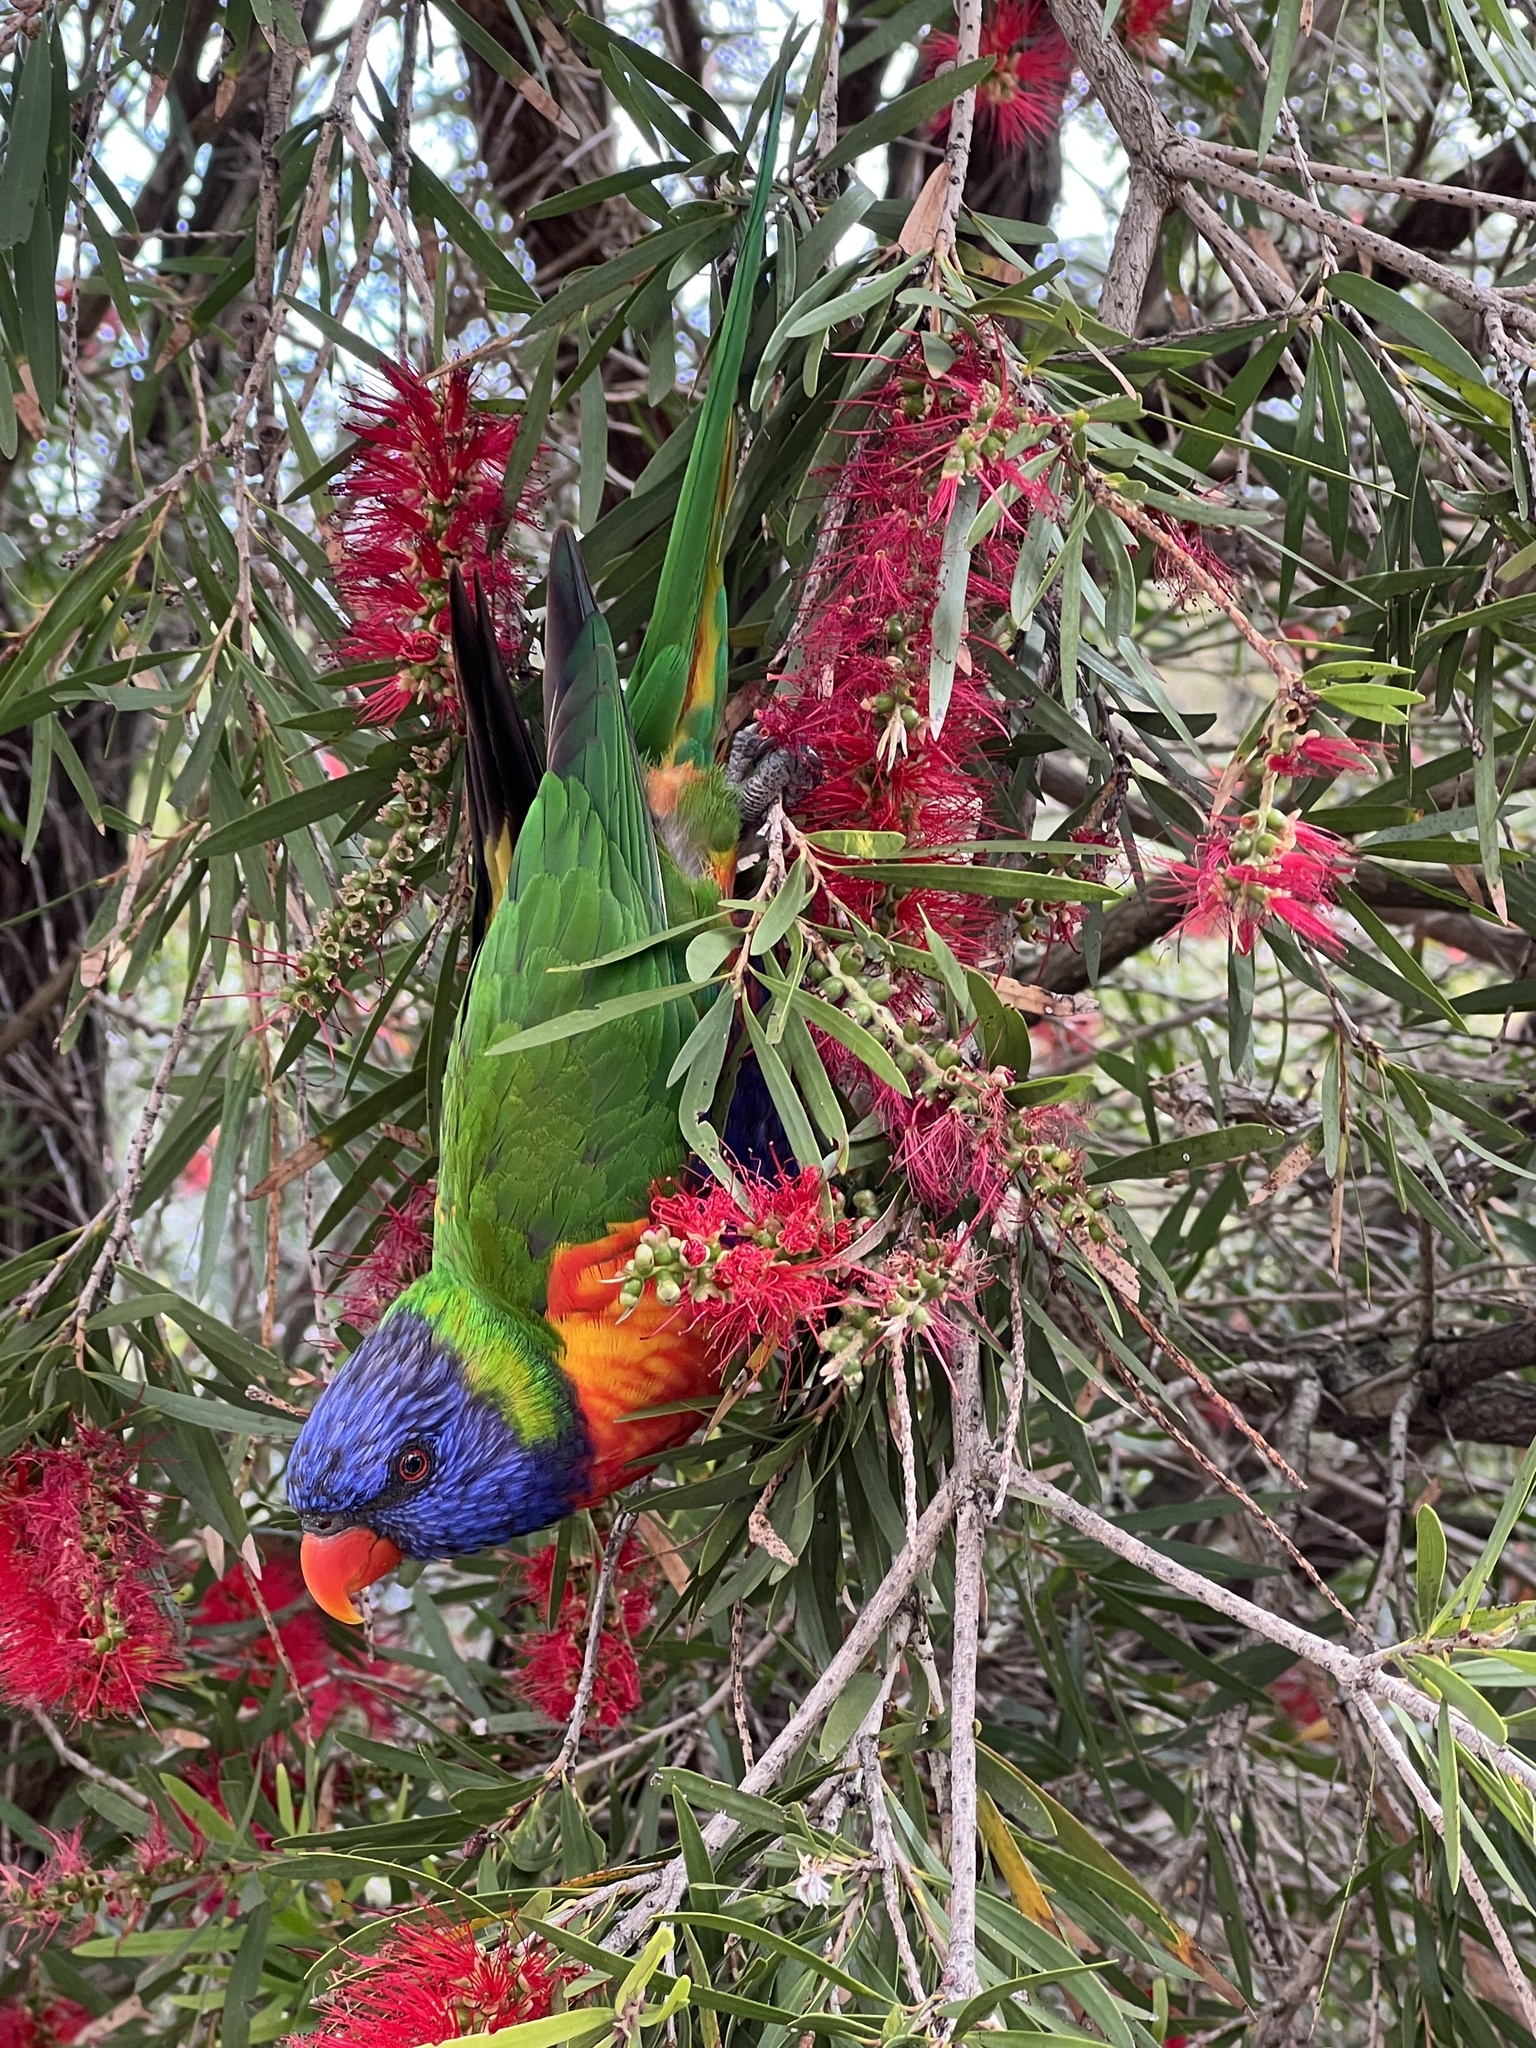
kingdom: Animalia
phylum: Chordata
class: Aves
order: Psittaciformes
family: Psittacidae
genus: Trichoglossus
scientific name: Trichoglossus haematodus
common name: Coconut lorikeet
